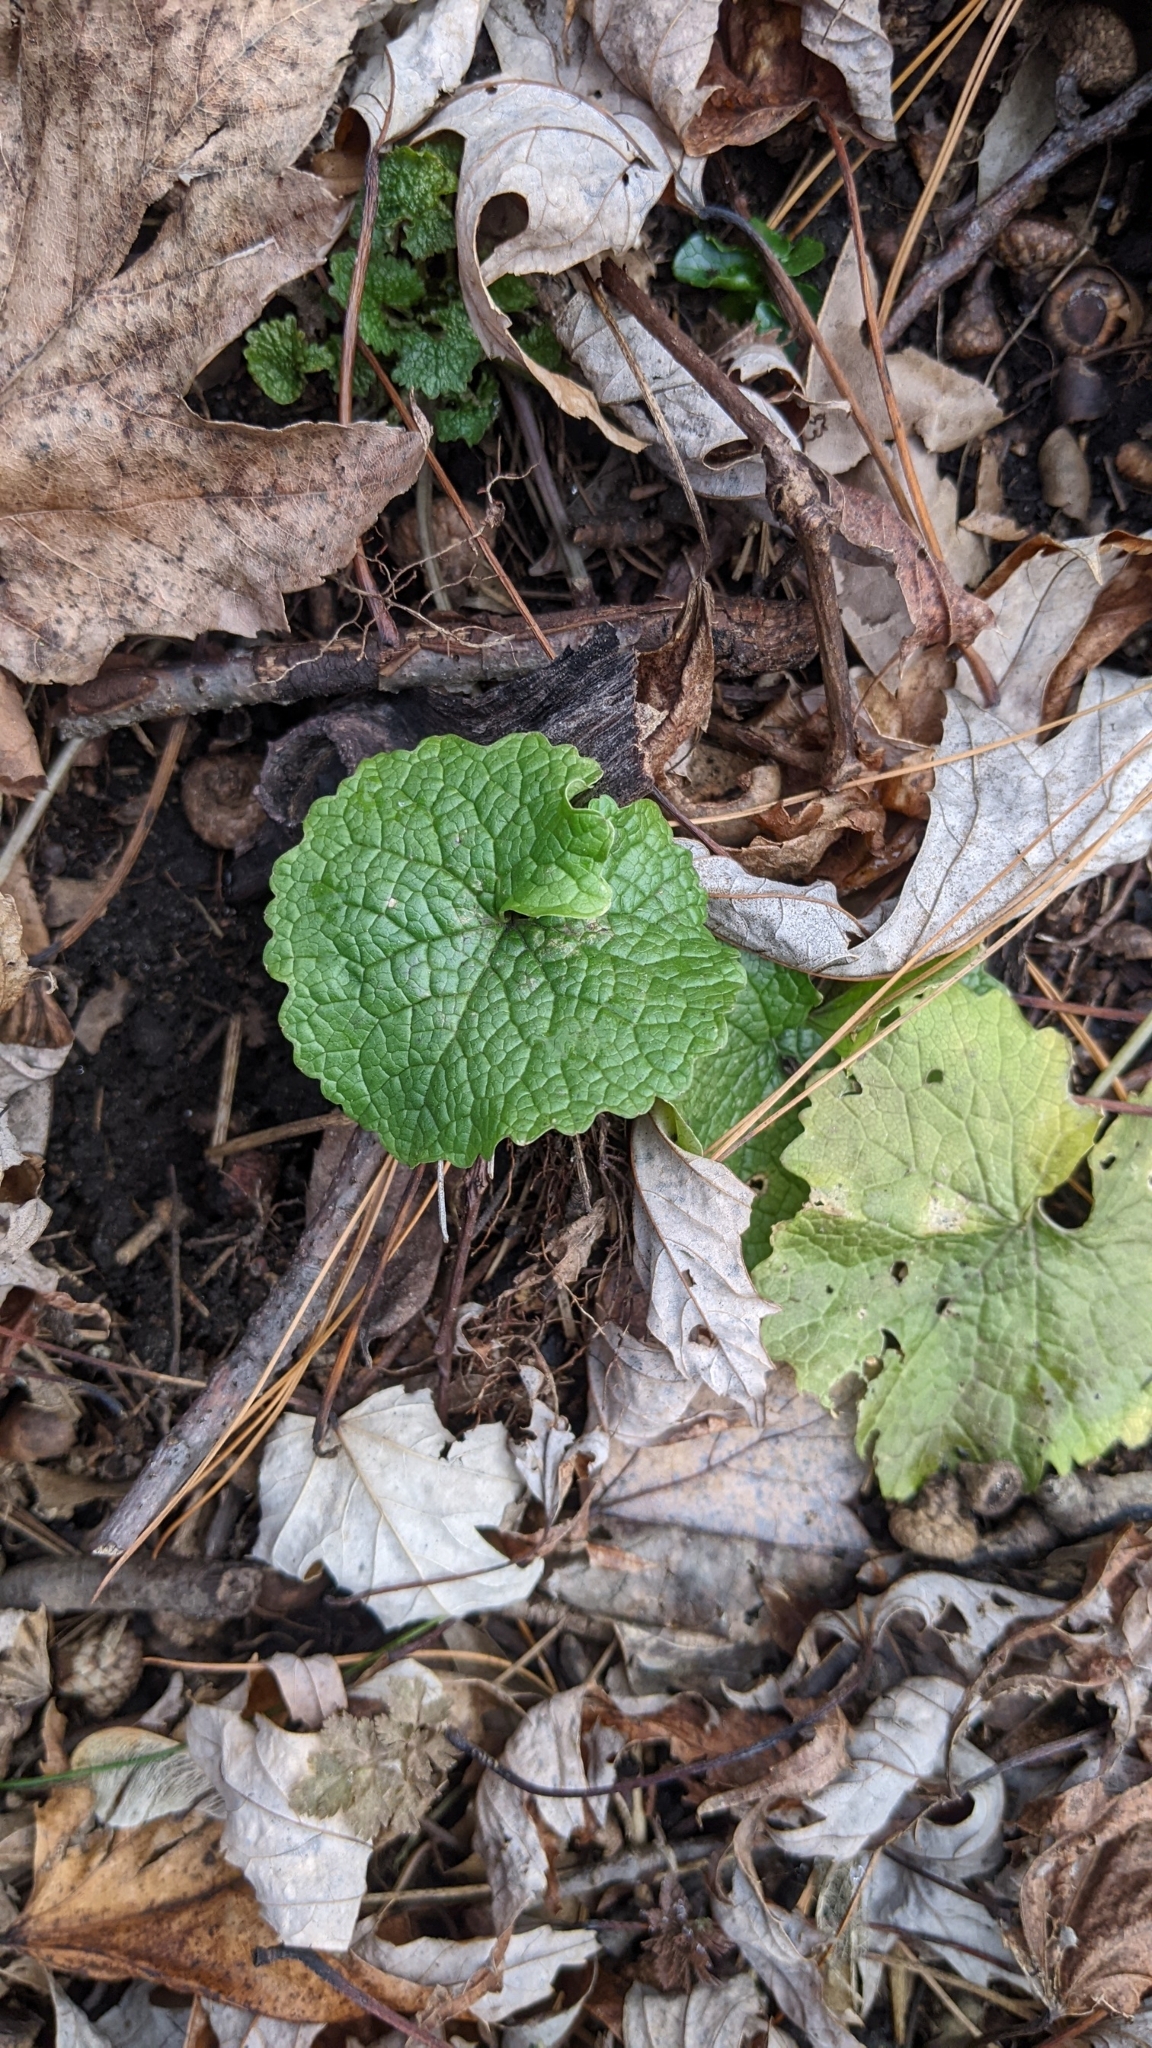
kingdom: Plantae
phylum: Tracheophyta
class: Magnoliopsida
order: Brassicales
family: Brassicaceae
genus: Alliaria
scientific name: Alliaria petiolata
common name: Garlic mustard
